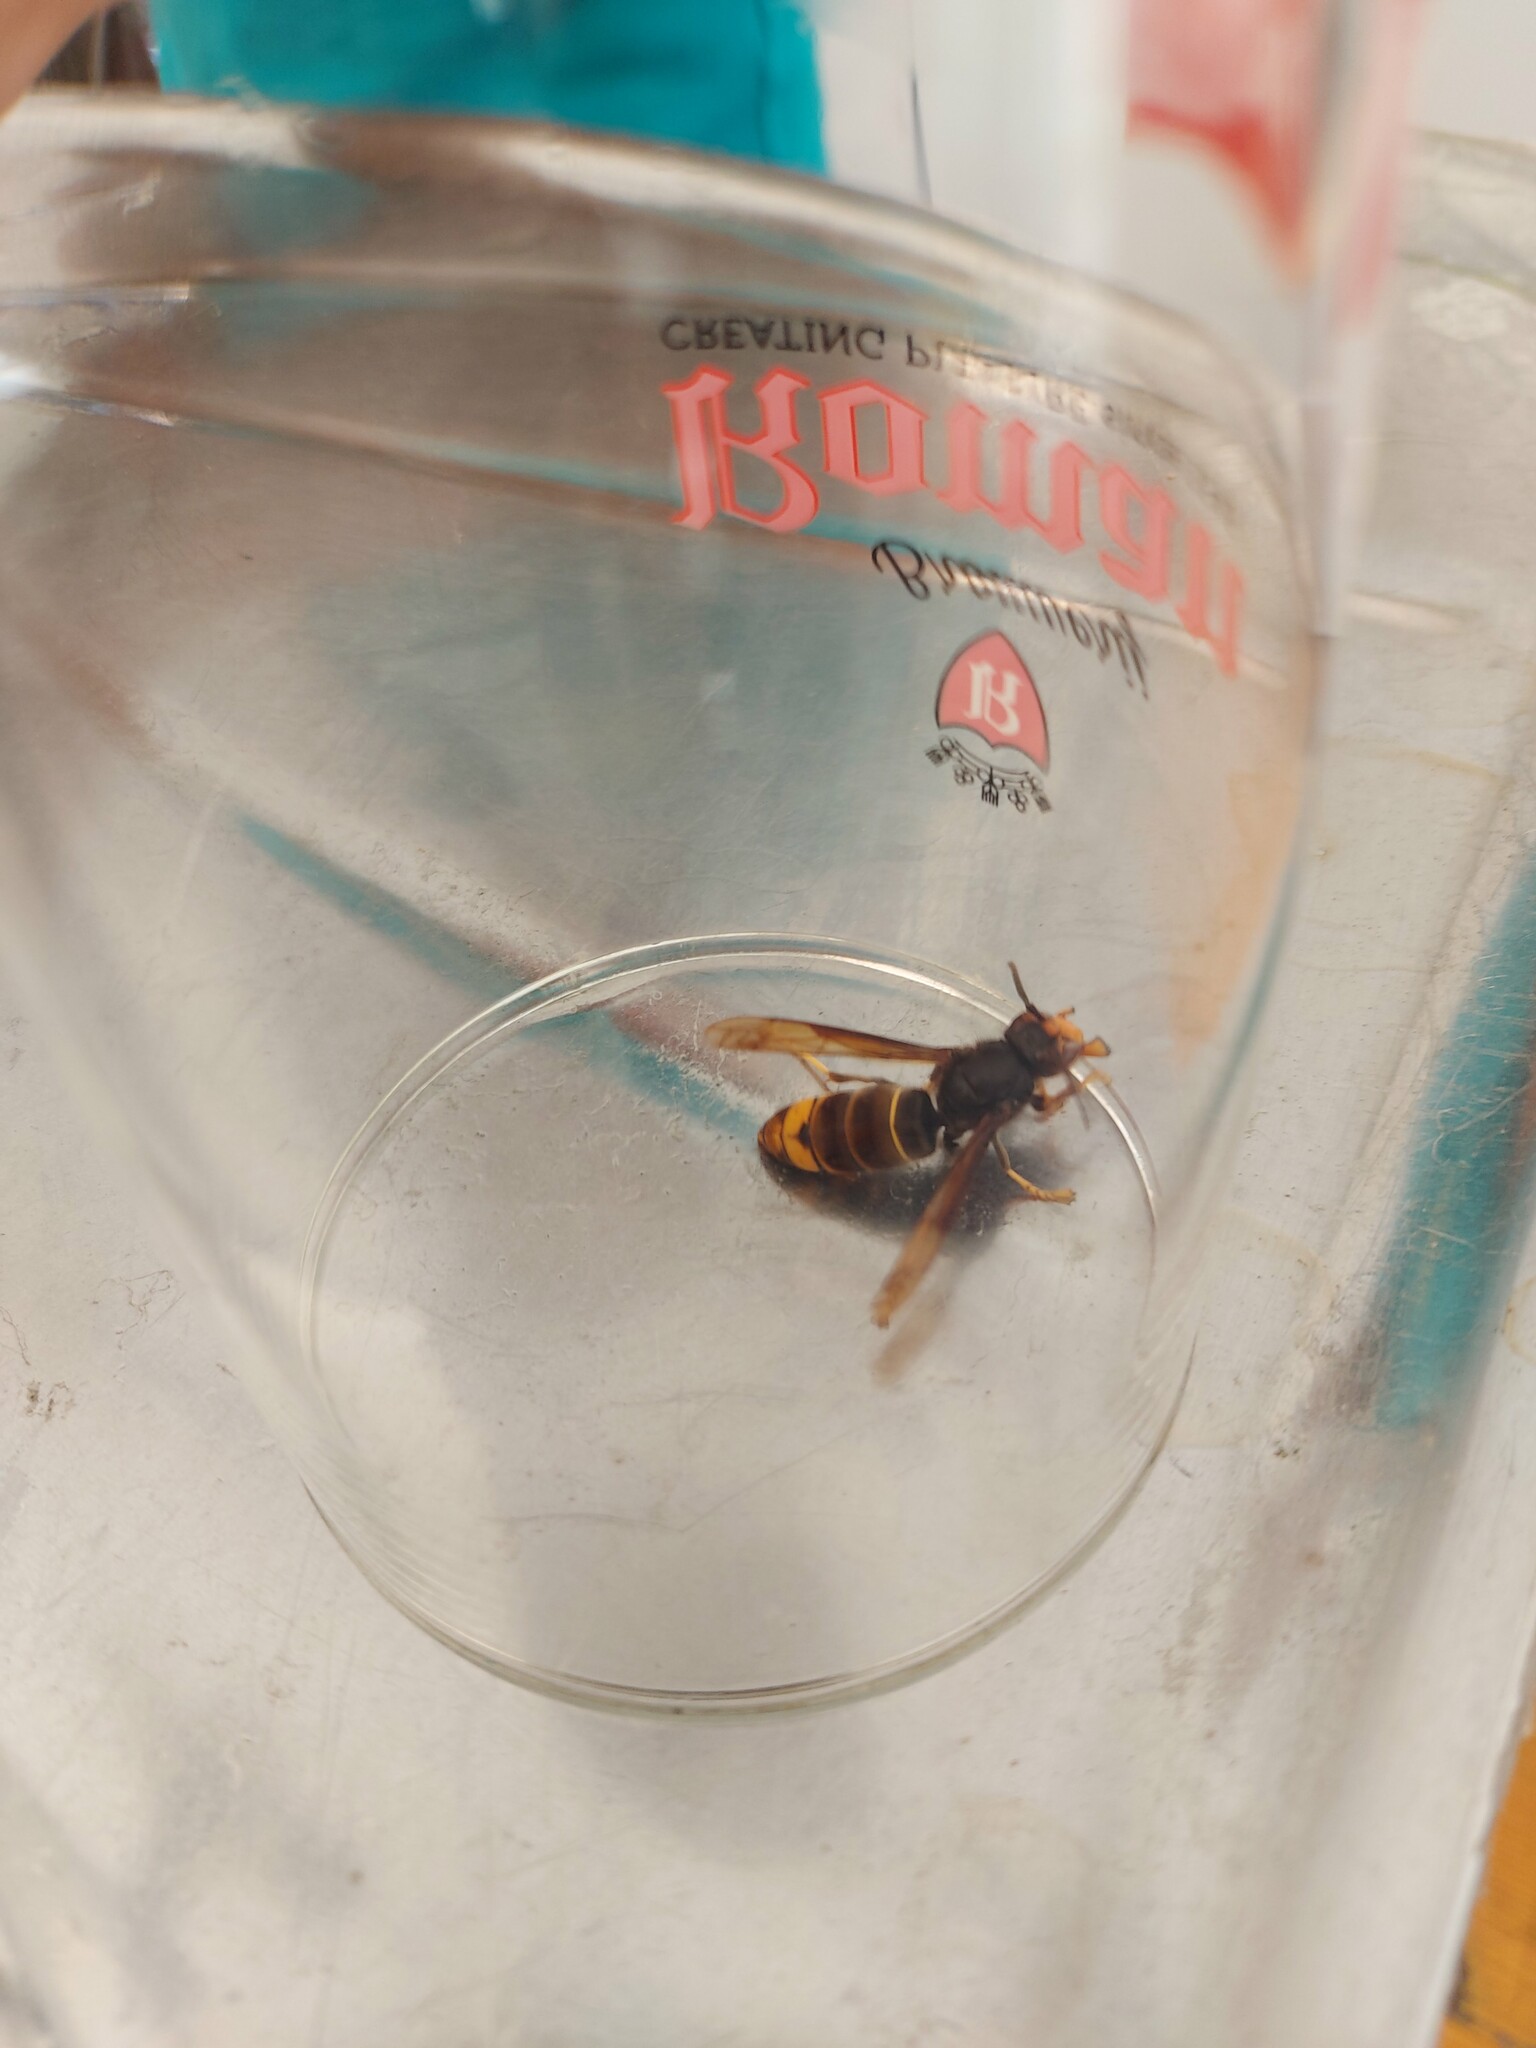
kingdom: Animalia
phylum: Arthropoda
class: Insecta
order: Hymenoptera
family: Vespidae
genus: Vespa
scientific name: Vespa velutina
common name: Asian hornet
